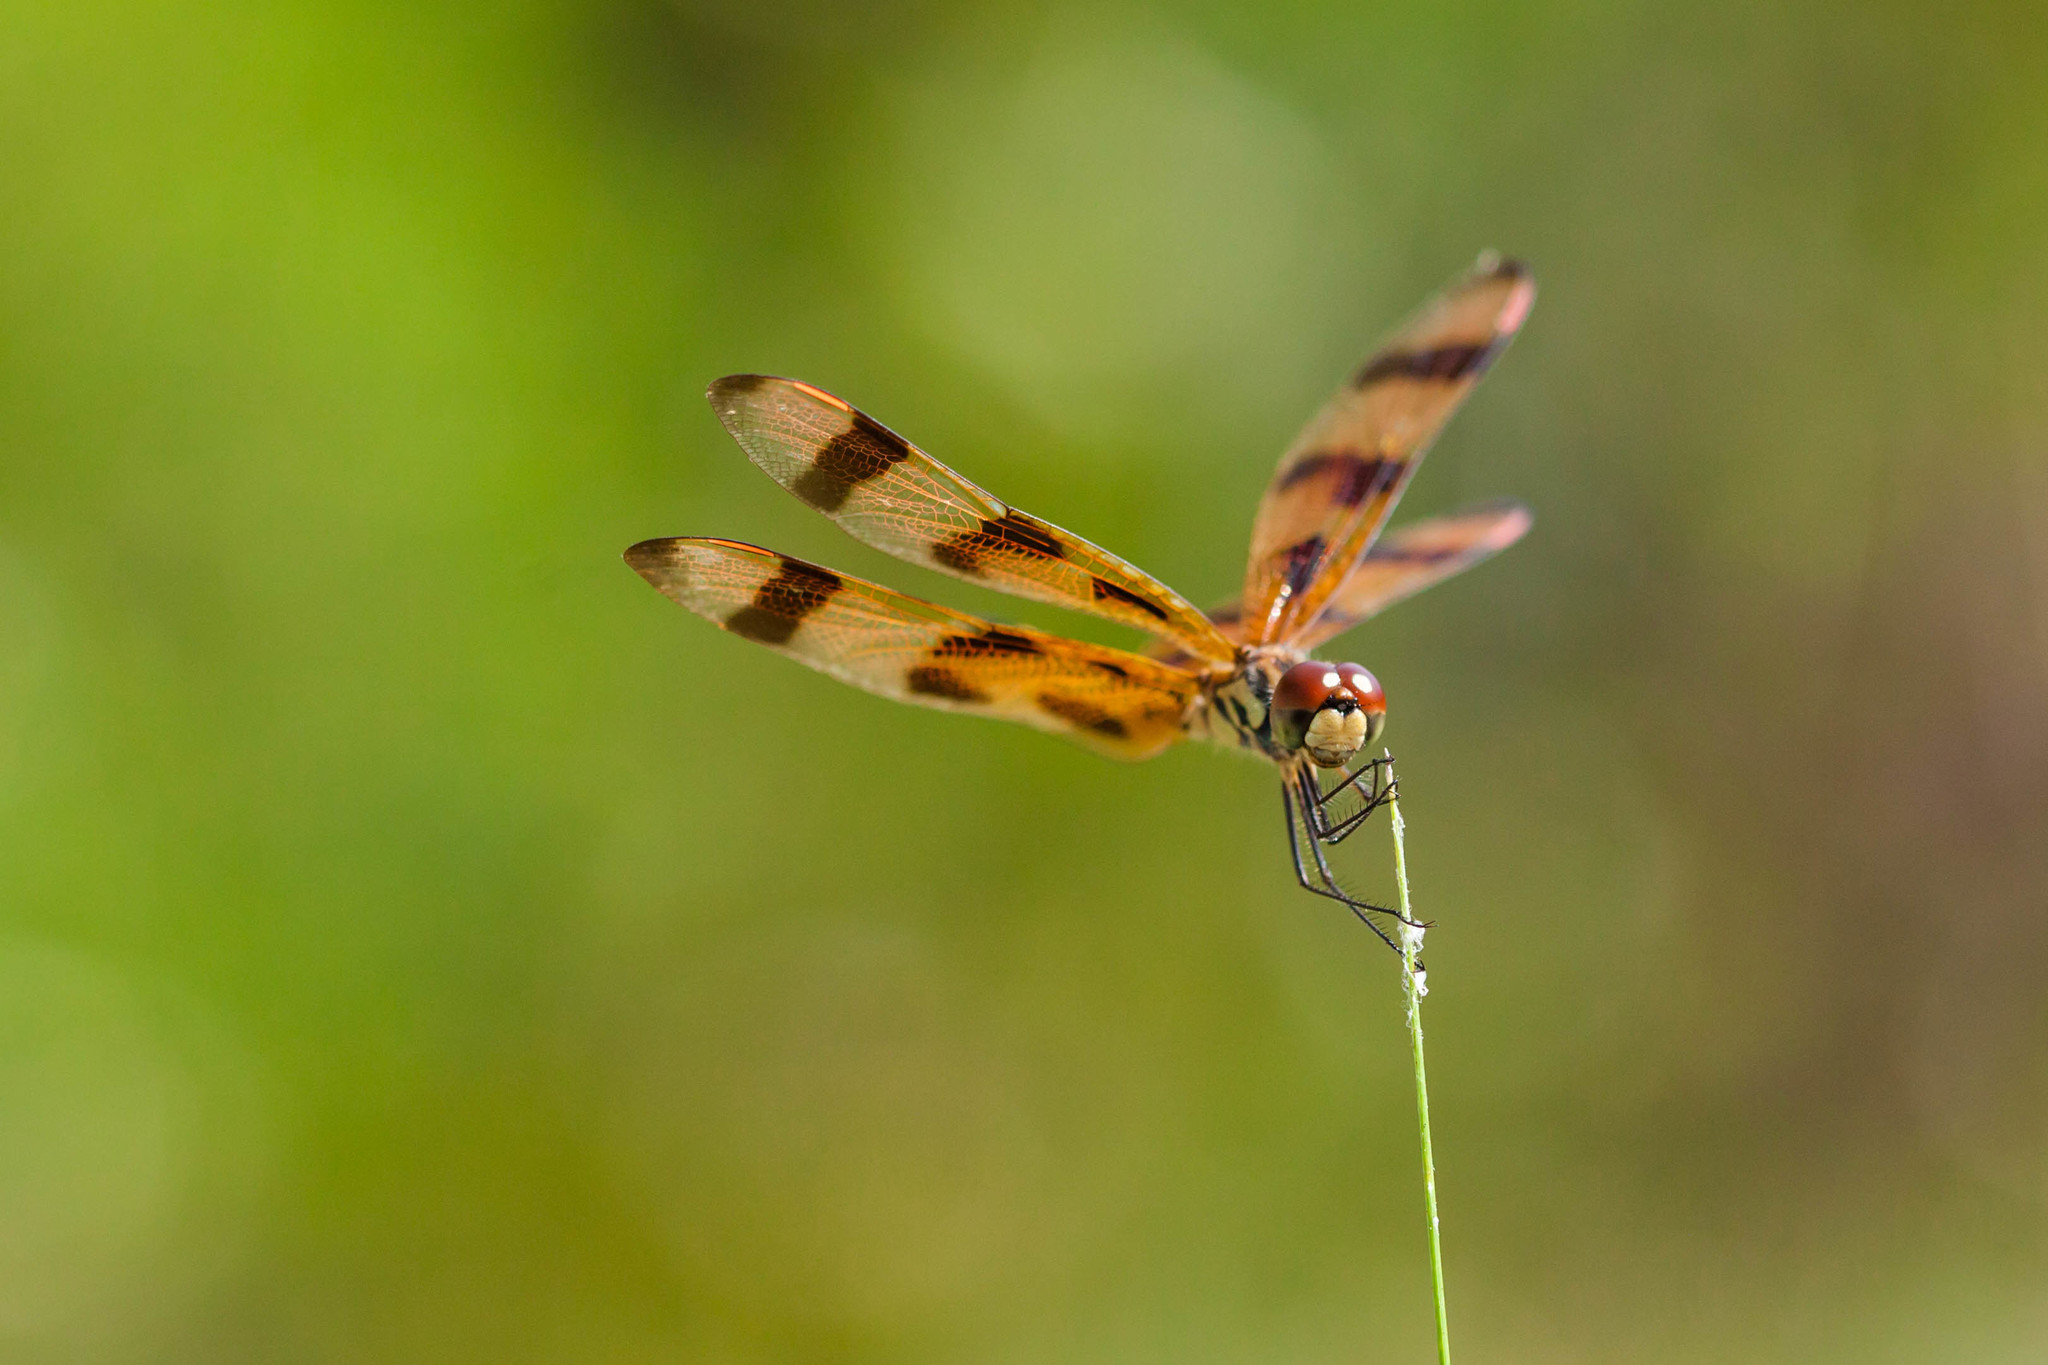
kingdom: Animalia
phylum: Arthropoda
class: Insecta
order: Odonata
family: Libellulidae
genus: Celithemis
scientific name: Celithemis eponina
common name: Halloween pennant
